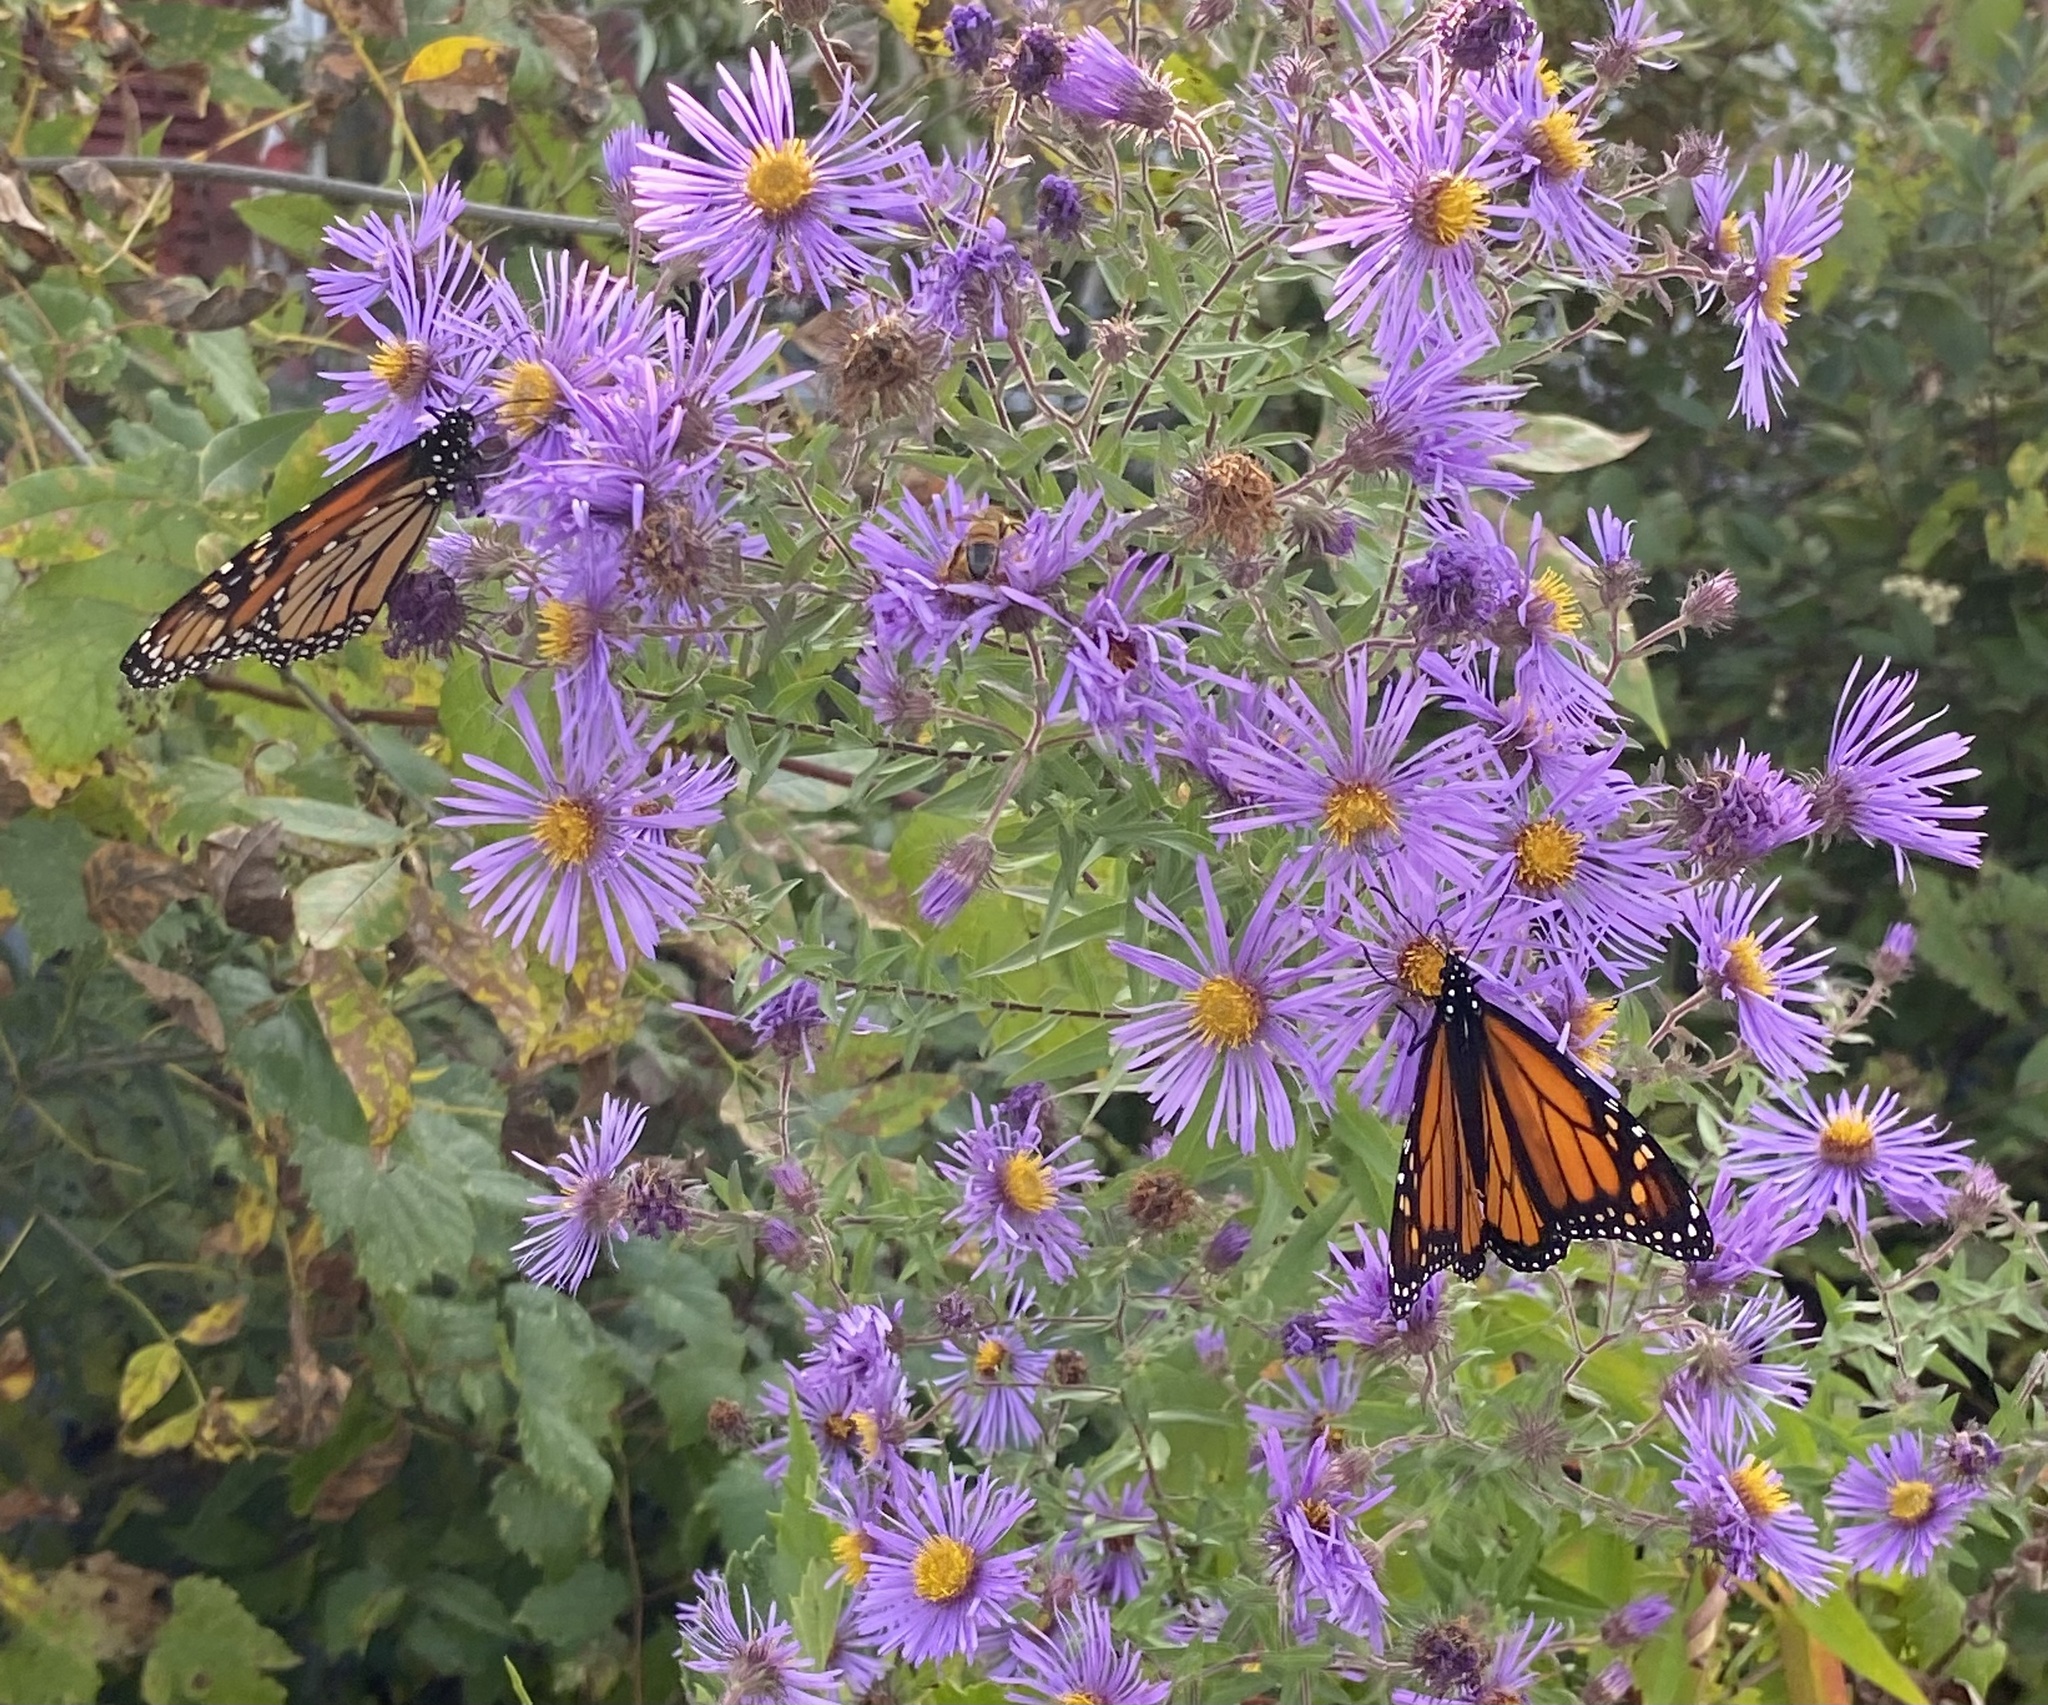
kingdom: Animalia
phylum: Arthropoda
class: Insecta
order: Lepidoptera
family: Nymphalidae
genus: Danaus
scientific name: Danaus plexippus
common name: Monarch
